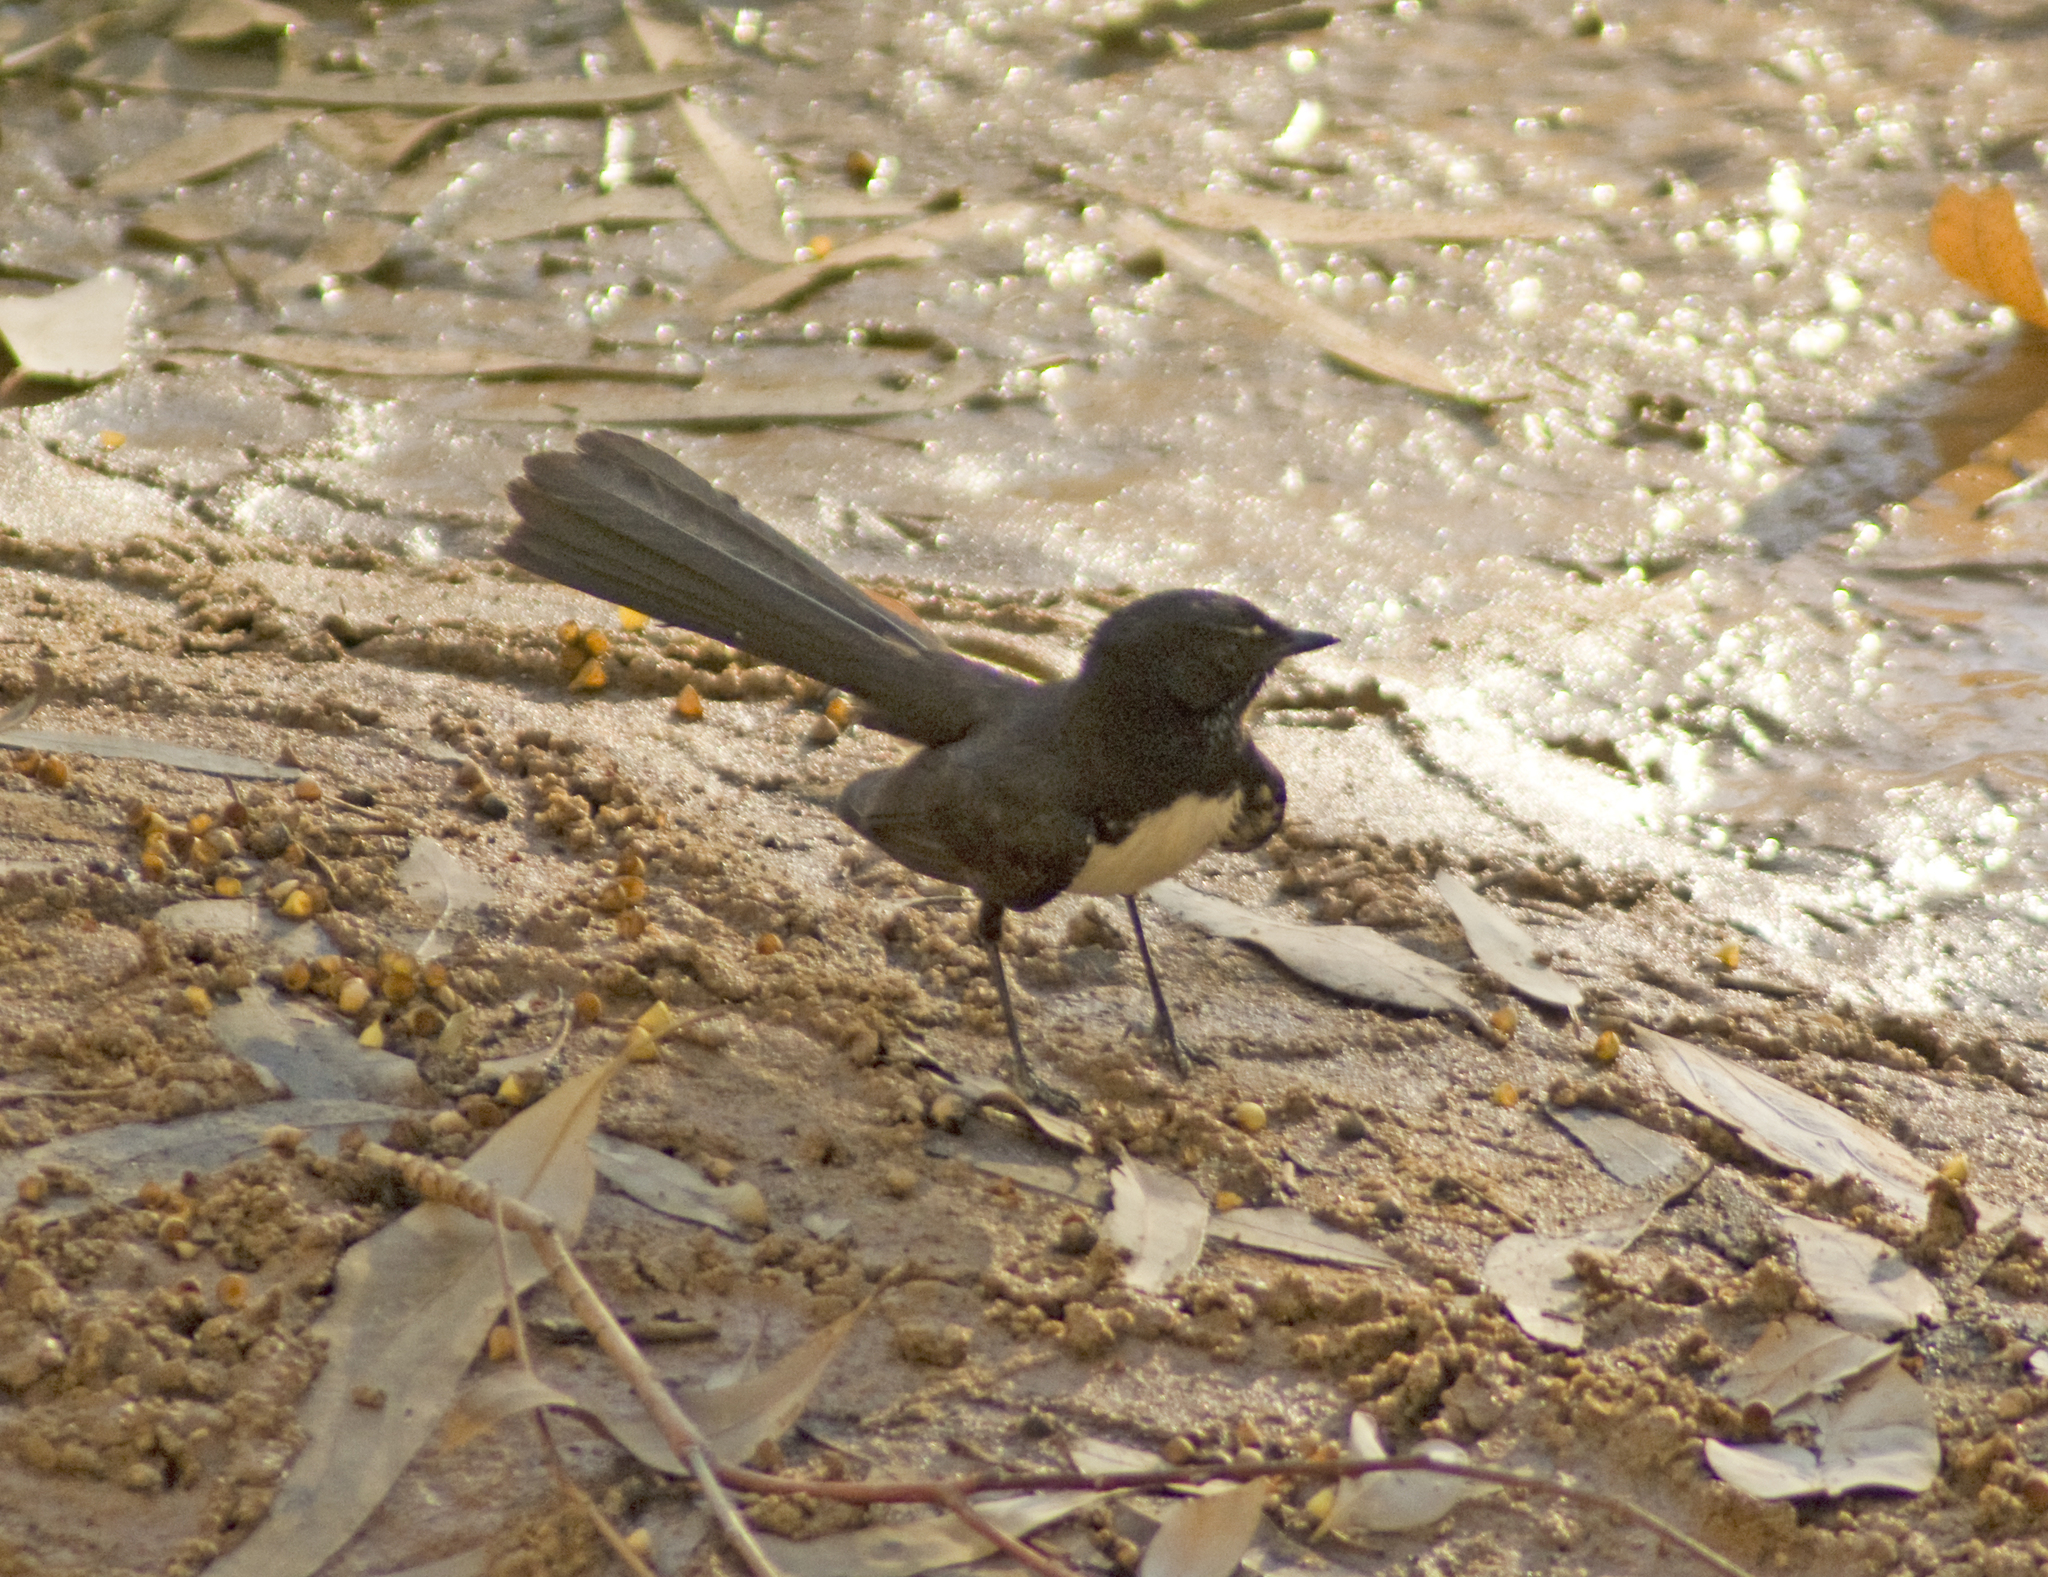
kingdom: Animalia
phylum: Chordata
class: Aves
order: Passeriformes
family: Rhipiduridae
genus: Rhipidura
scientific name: Rhipidura leucophrys
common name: Willie wagtail
